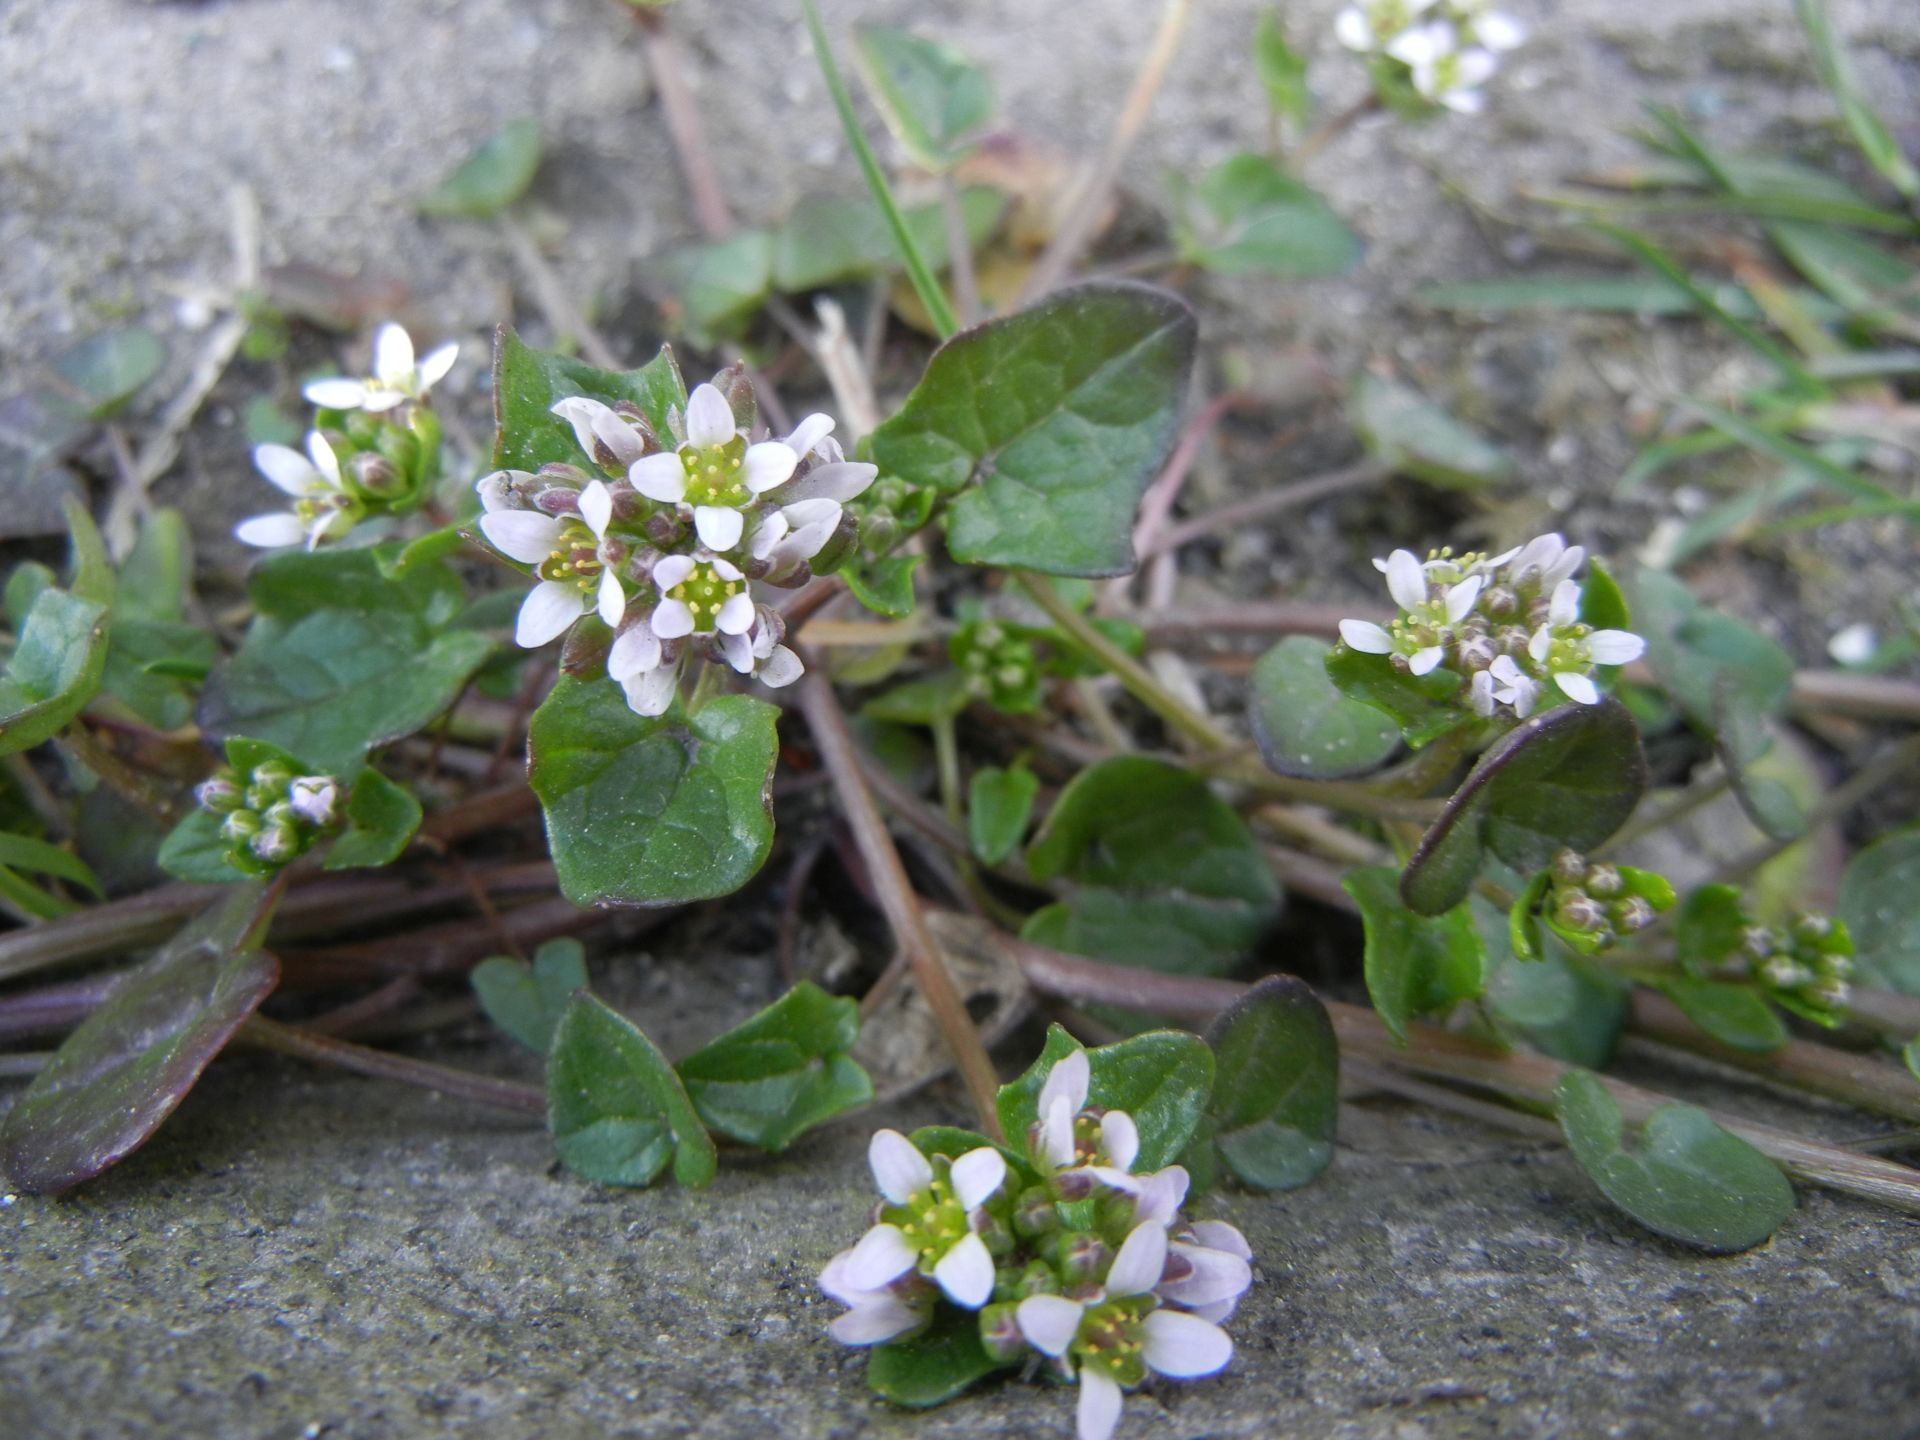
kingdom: Plantae
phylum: Tracheophyta
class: Magnoliopsida
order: Brassicales
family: Brassicaceae
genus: Cochlearia
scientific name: Cochlearia danica
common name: Early scurvygrass
